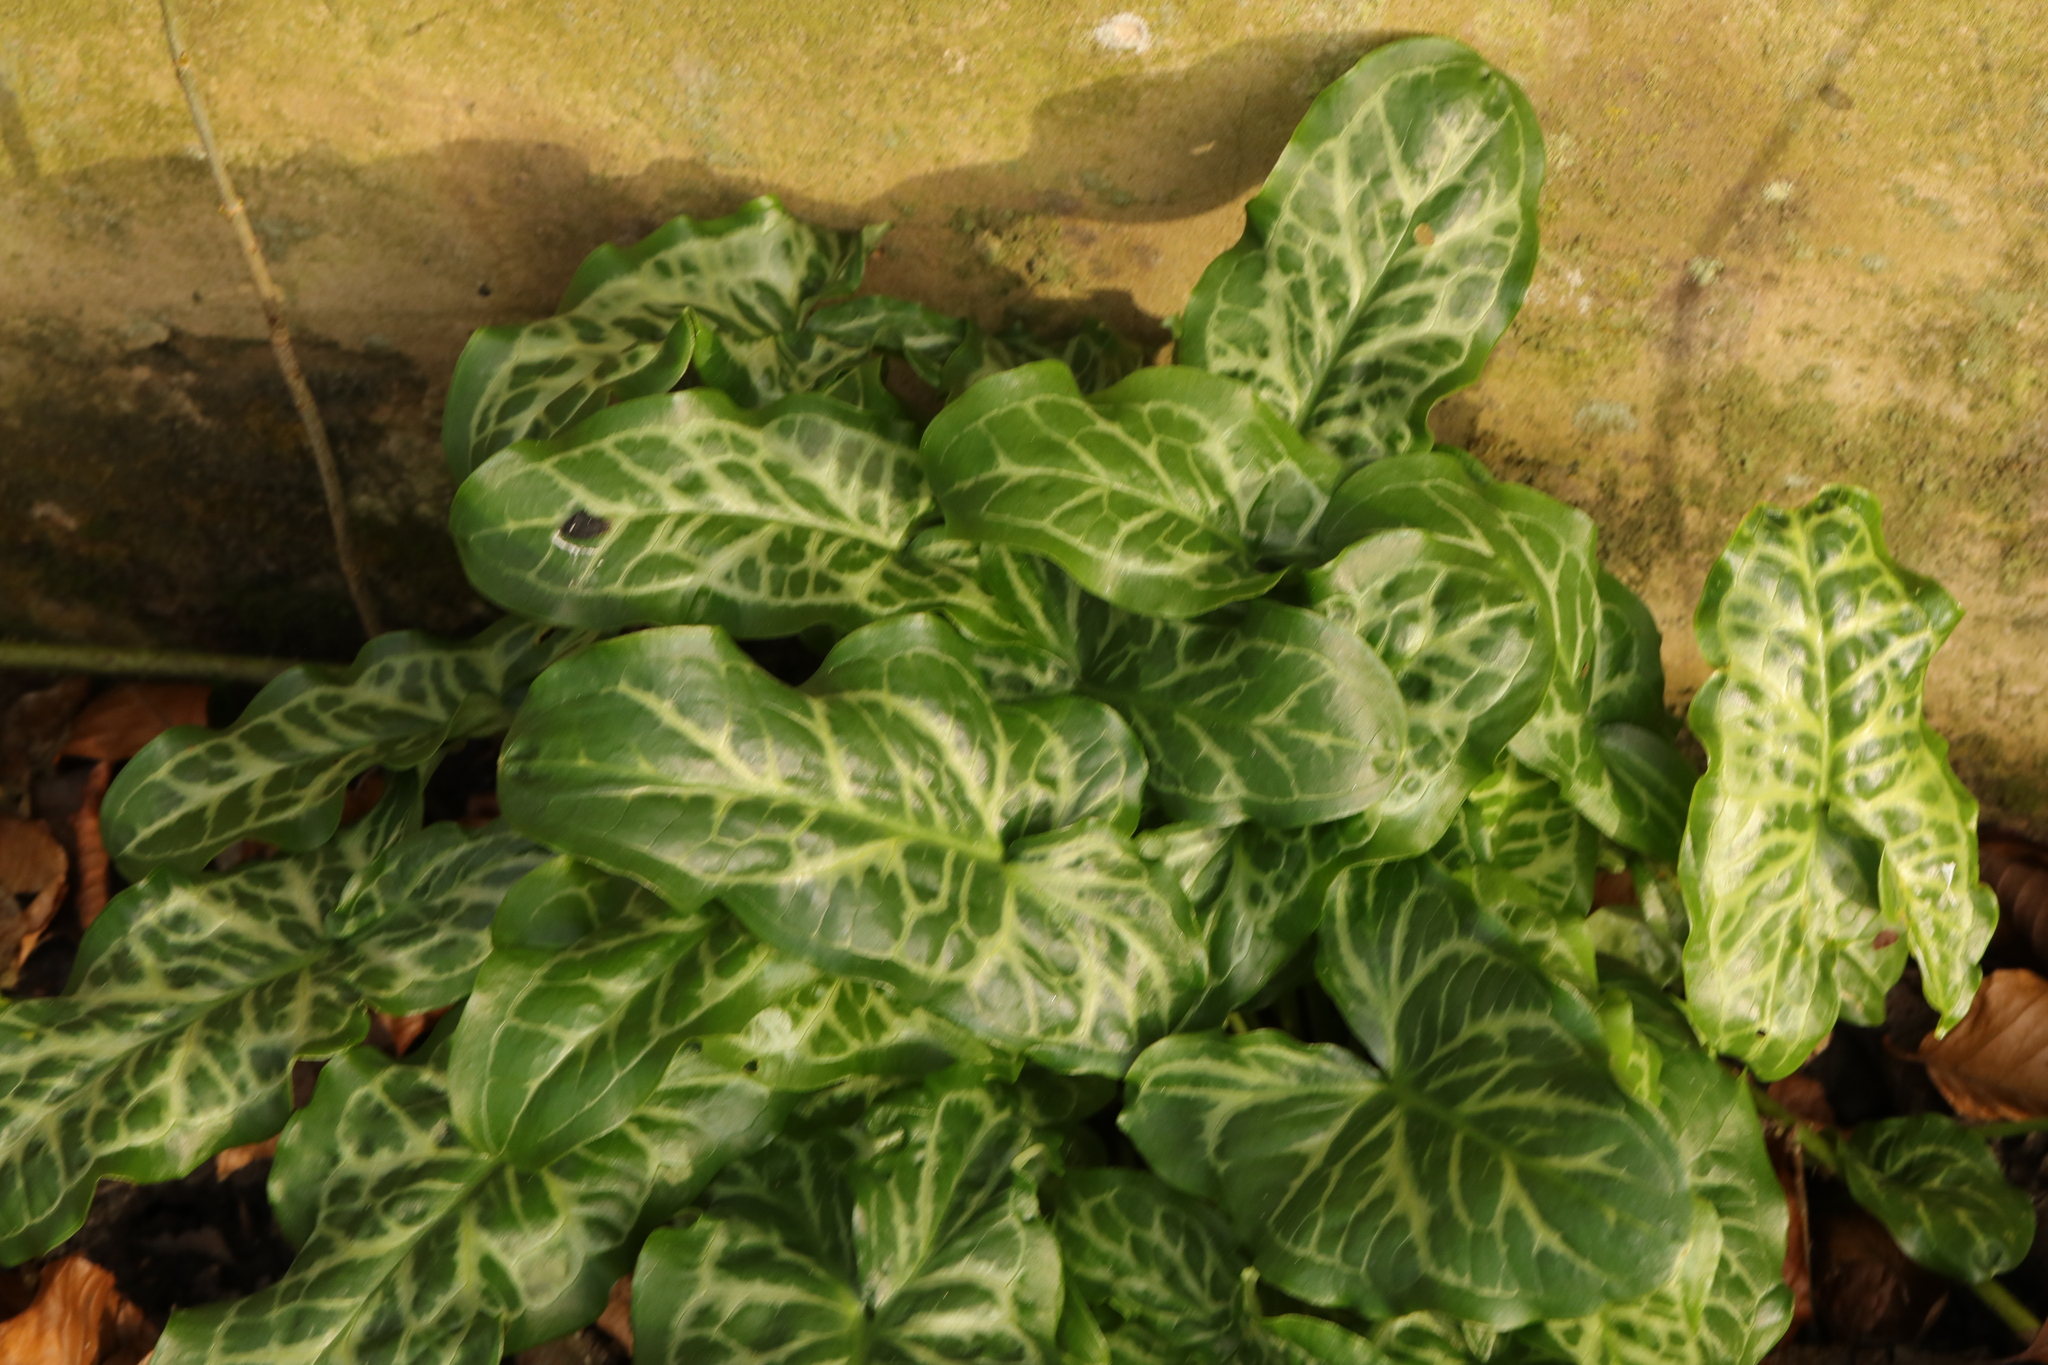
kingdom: Plantae
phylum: Tracheophyta
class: Liliopsida
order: Alismatales
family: Araceae
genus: Arum
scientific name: Arum italicum
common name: Italian lords-and-ladies
